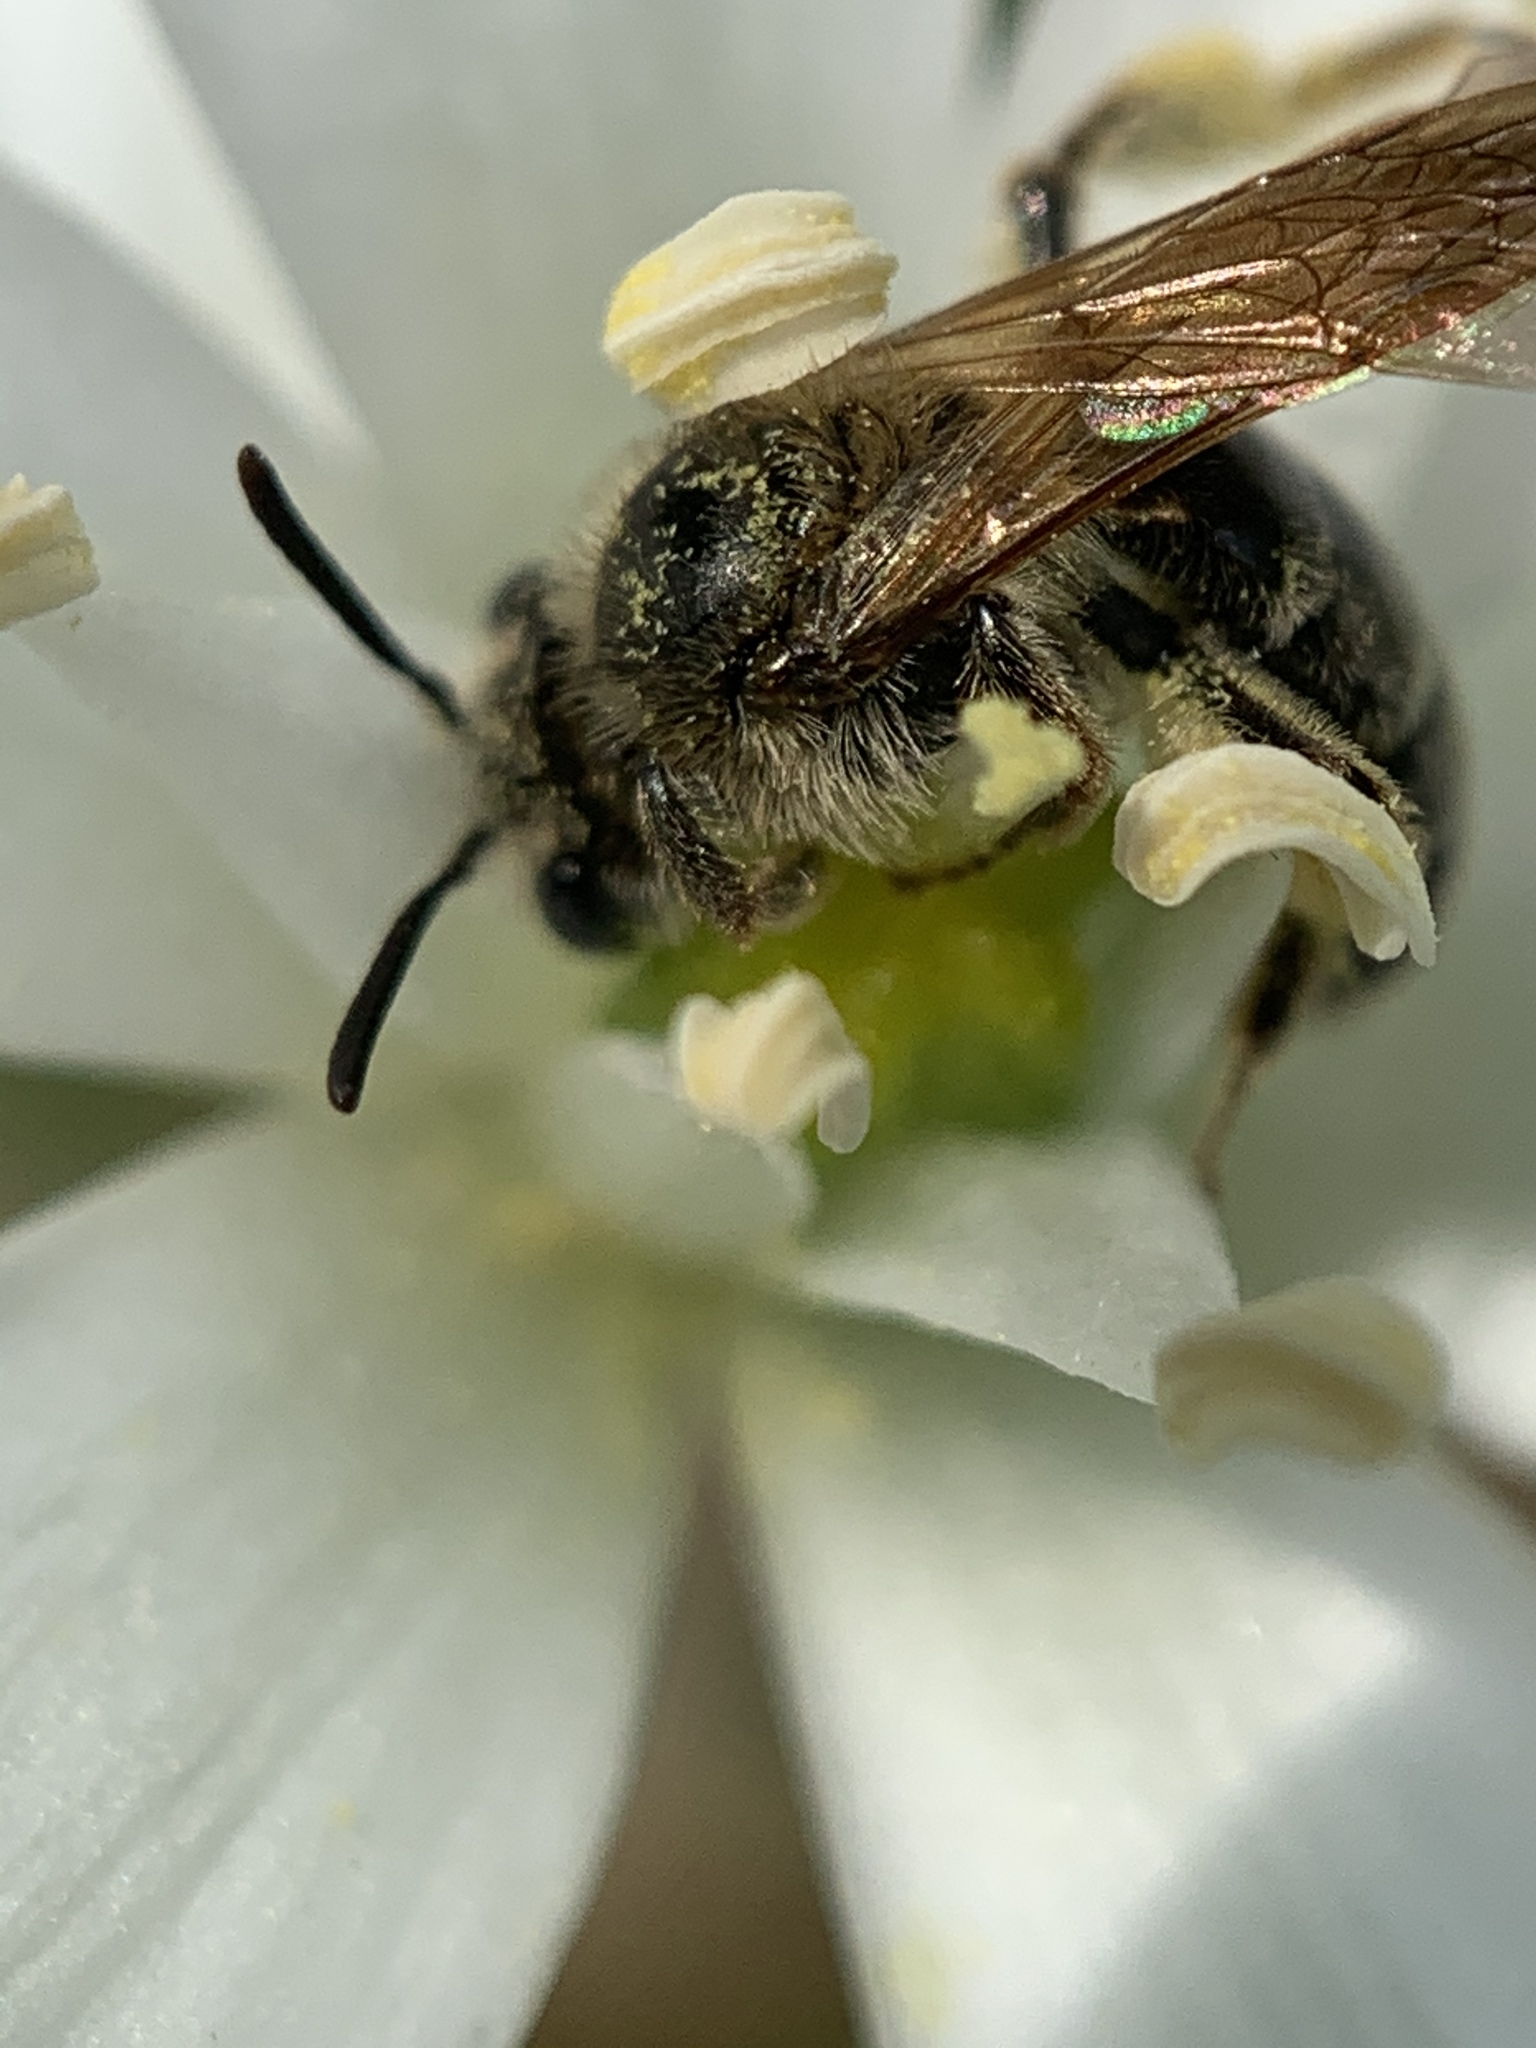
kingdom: Animalia
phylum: Arthropoda
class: Insecta
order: Hymenoptera
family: Andrenidae
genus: Andrena
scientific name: Andrena
